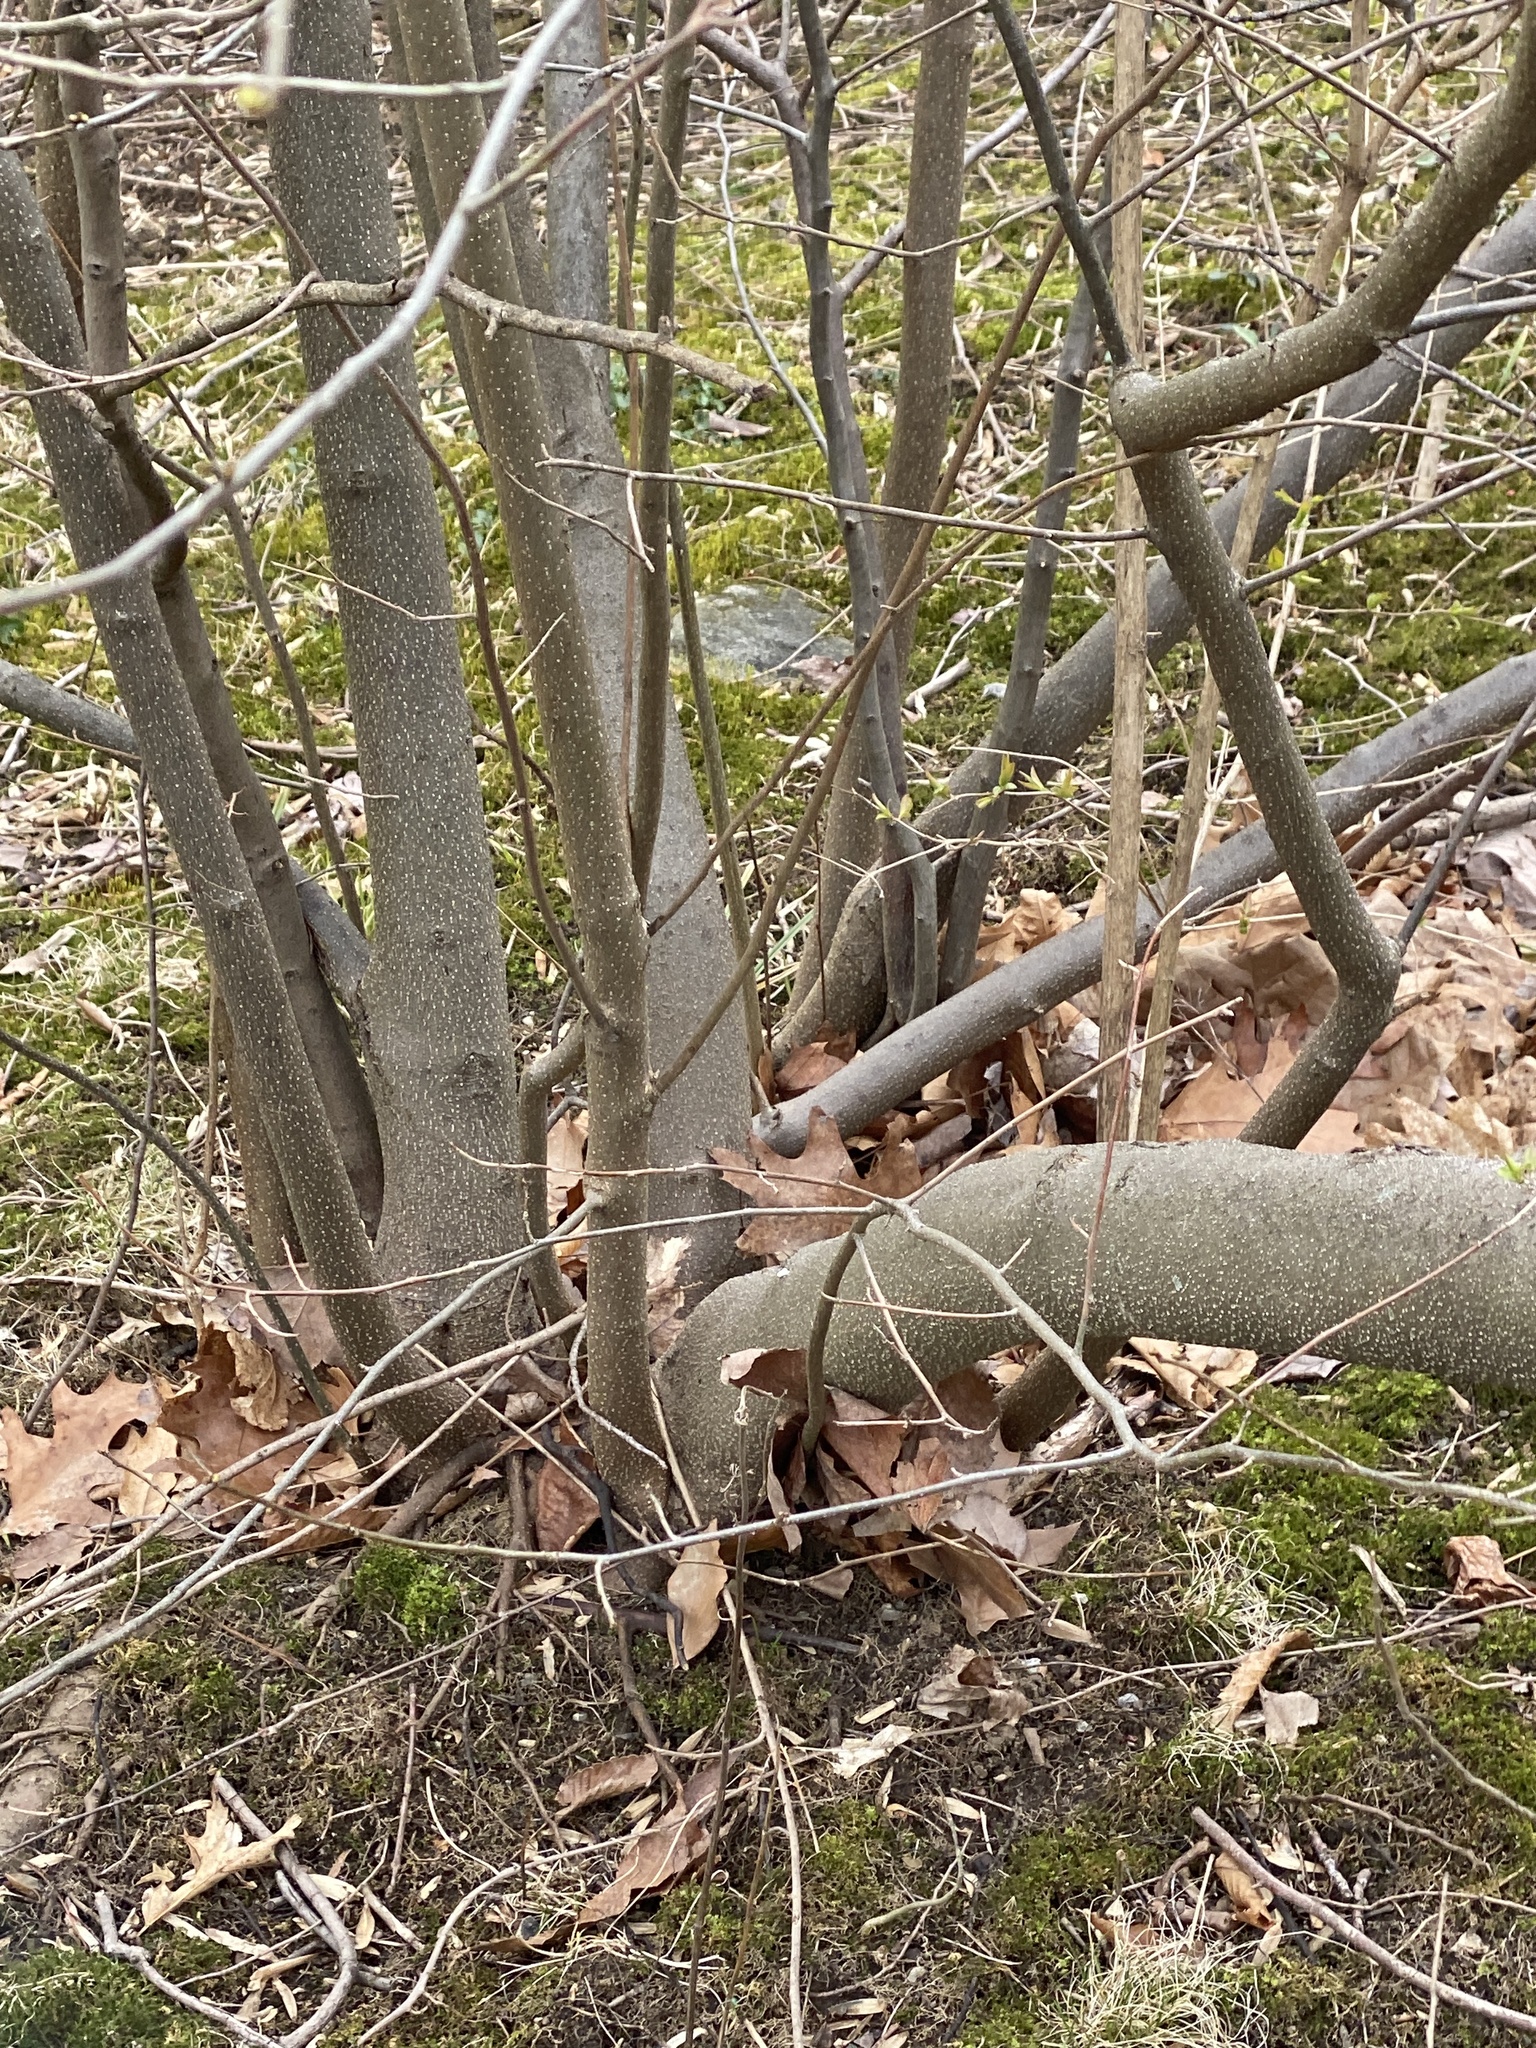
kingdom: Plantae
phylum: Tracheophyta
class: Magnoliopsida
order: Laurales
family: Lauraceae
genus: Lindera
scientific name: Lindera benzoin
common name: Spicebush
